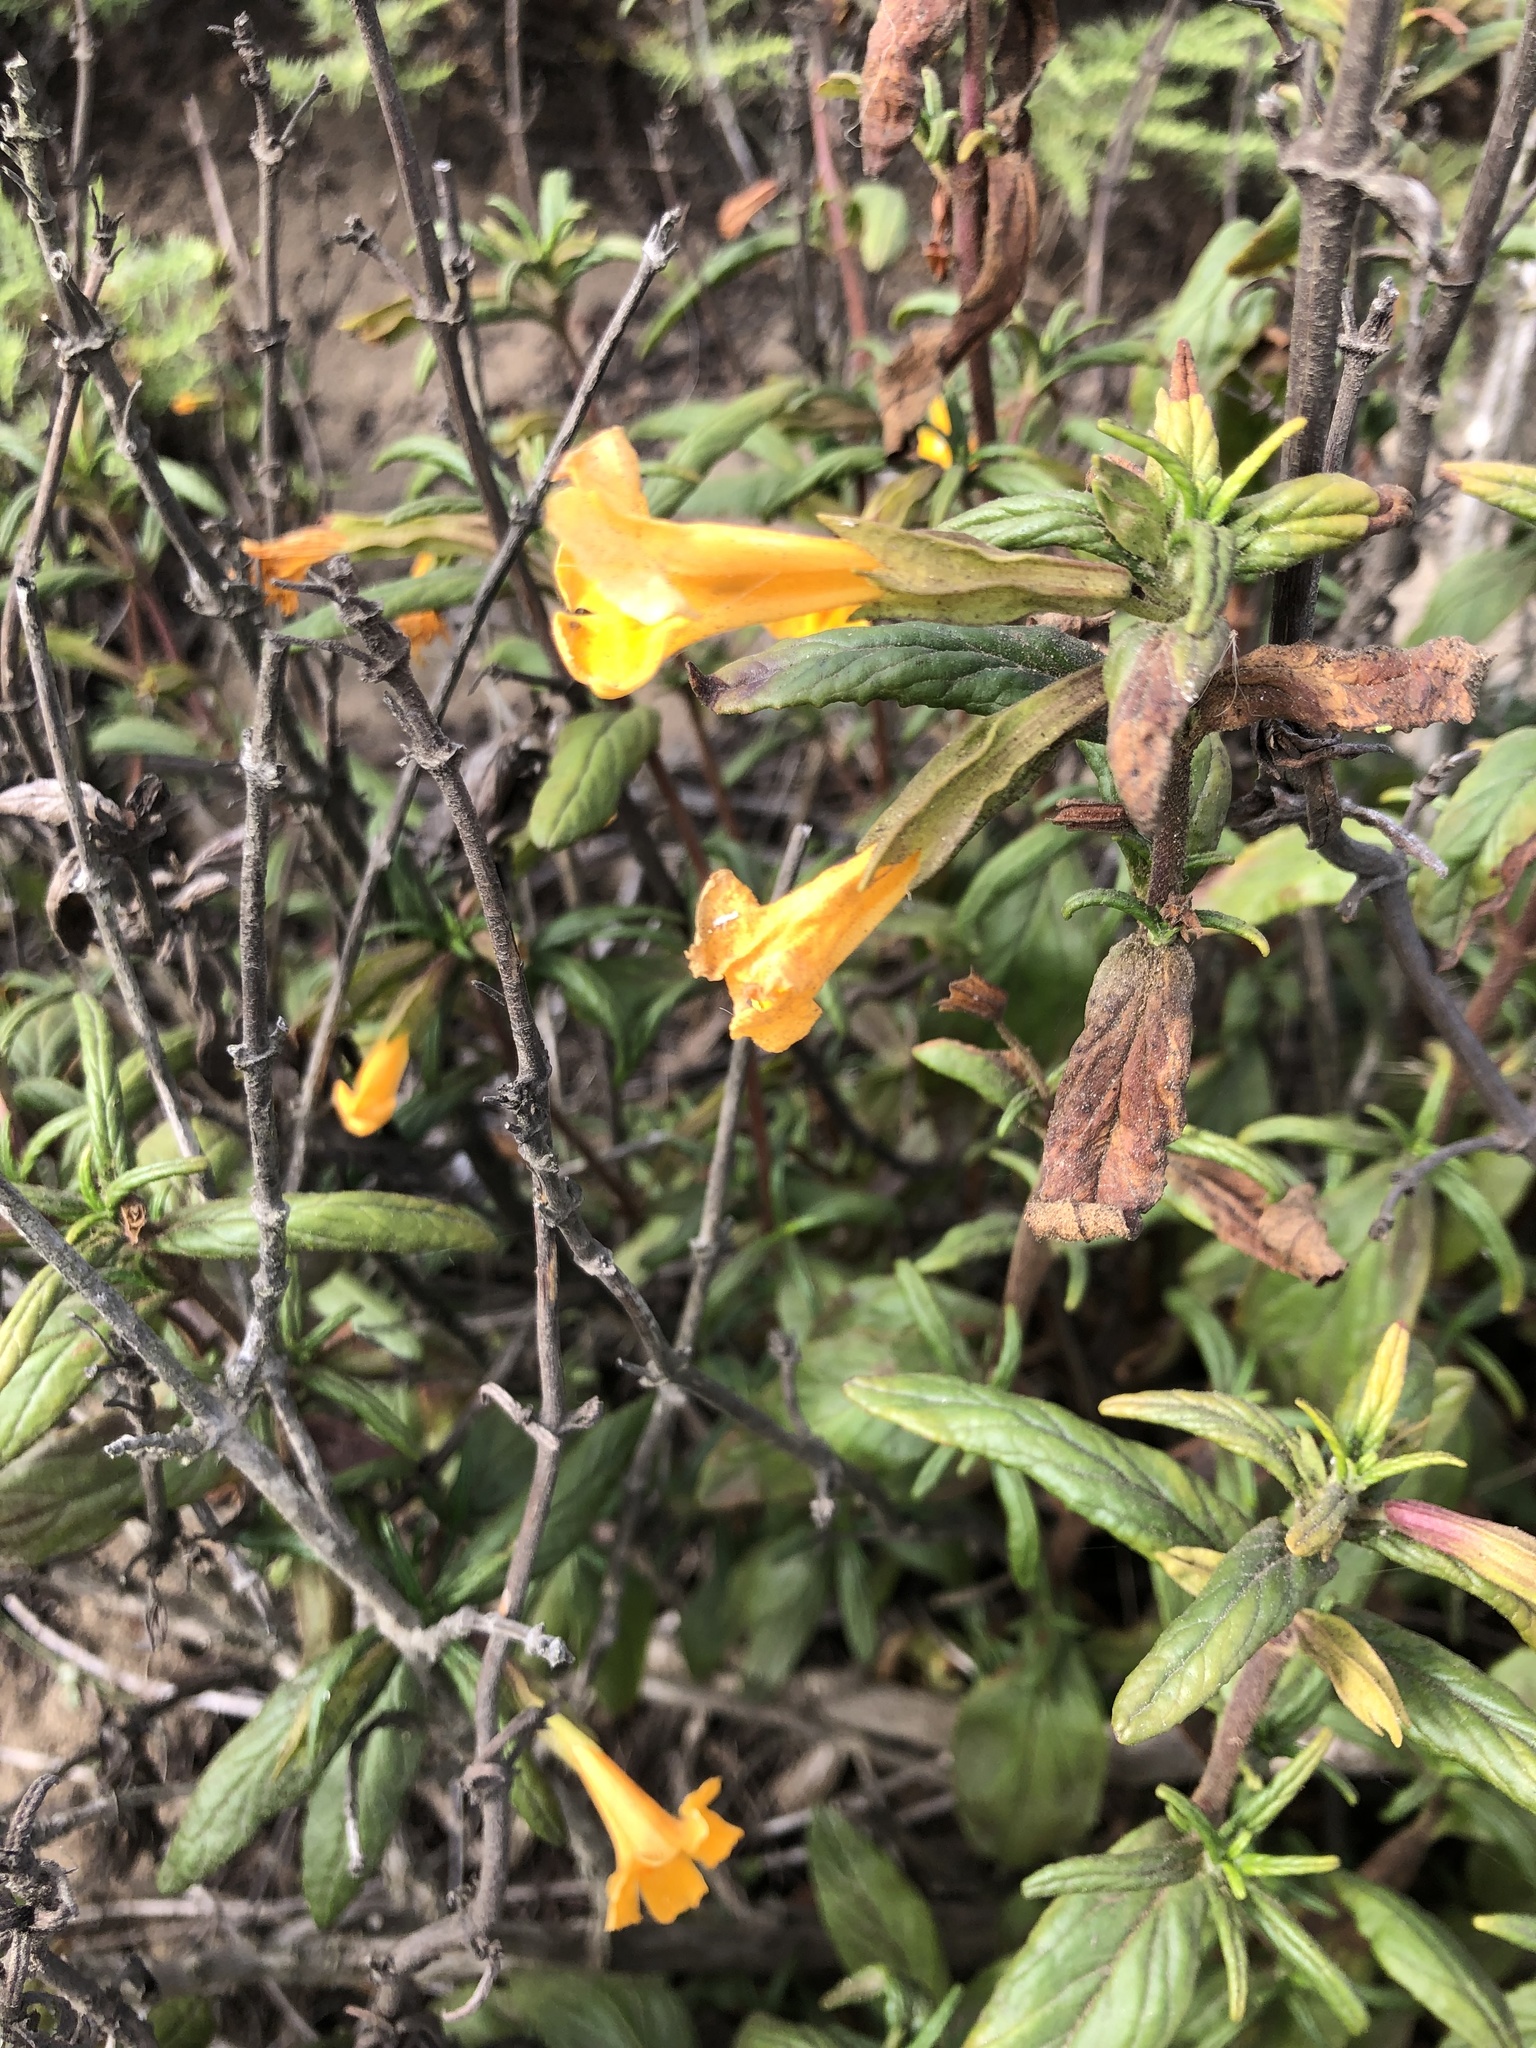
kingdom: Plantae
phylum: Tracheophyta
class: Magnoliopsida
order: Lamiales
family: Phrymaceae
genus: Diplacus
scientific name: Diplacus aurantiacus
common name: Bush monkey-flower
